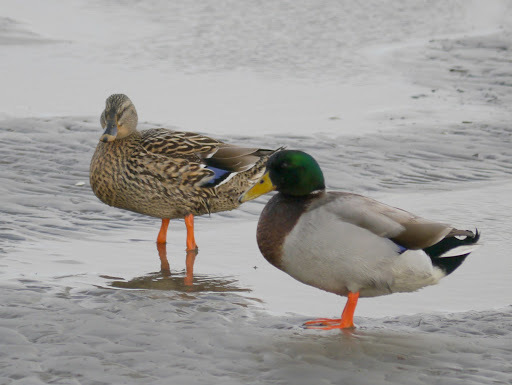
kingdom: Animalia
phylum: Chordata
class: Aves
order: Anseriformes
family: Anatidae
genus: Anas
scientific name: Anas platyrhynchos
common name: Mallard
